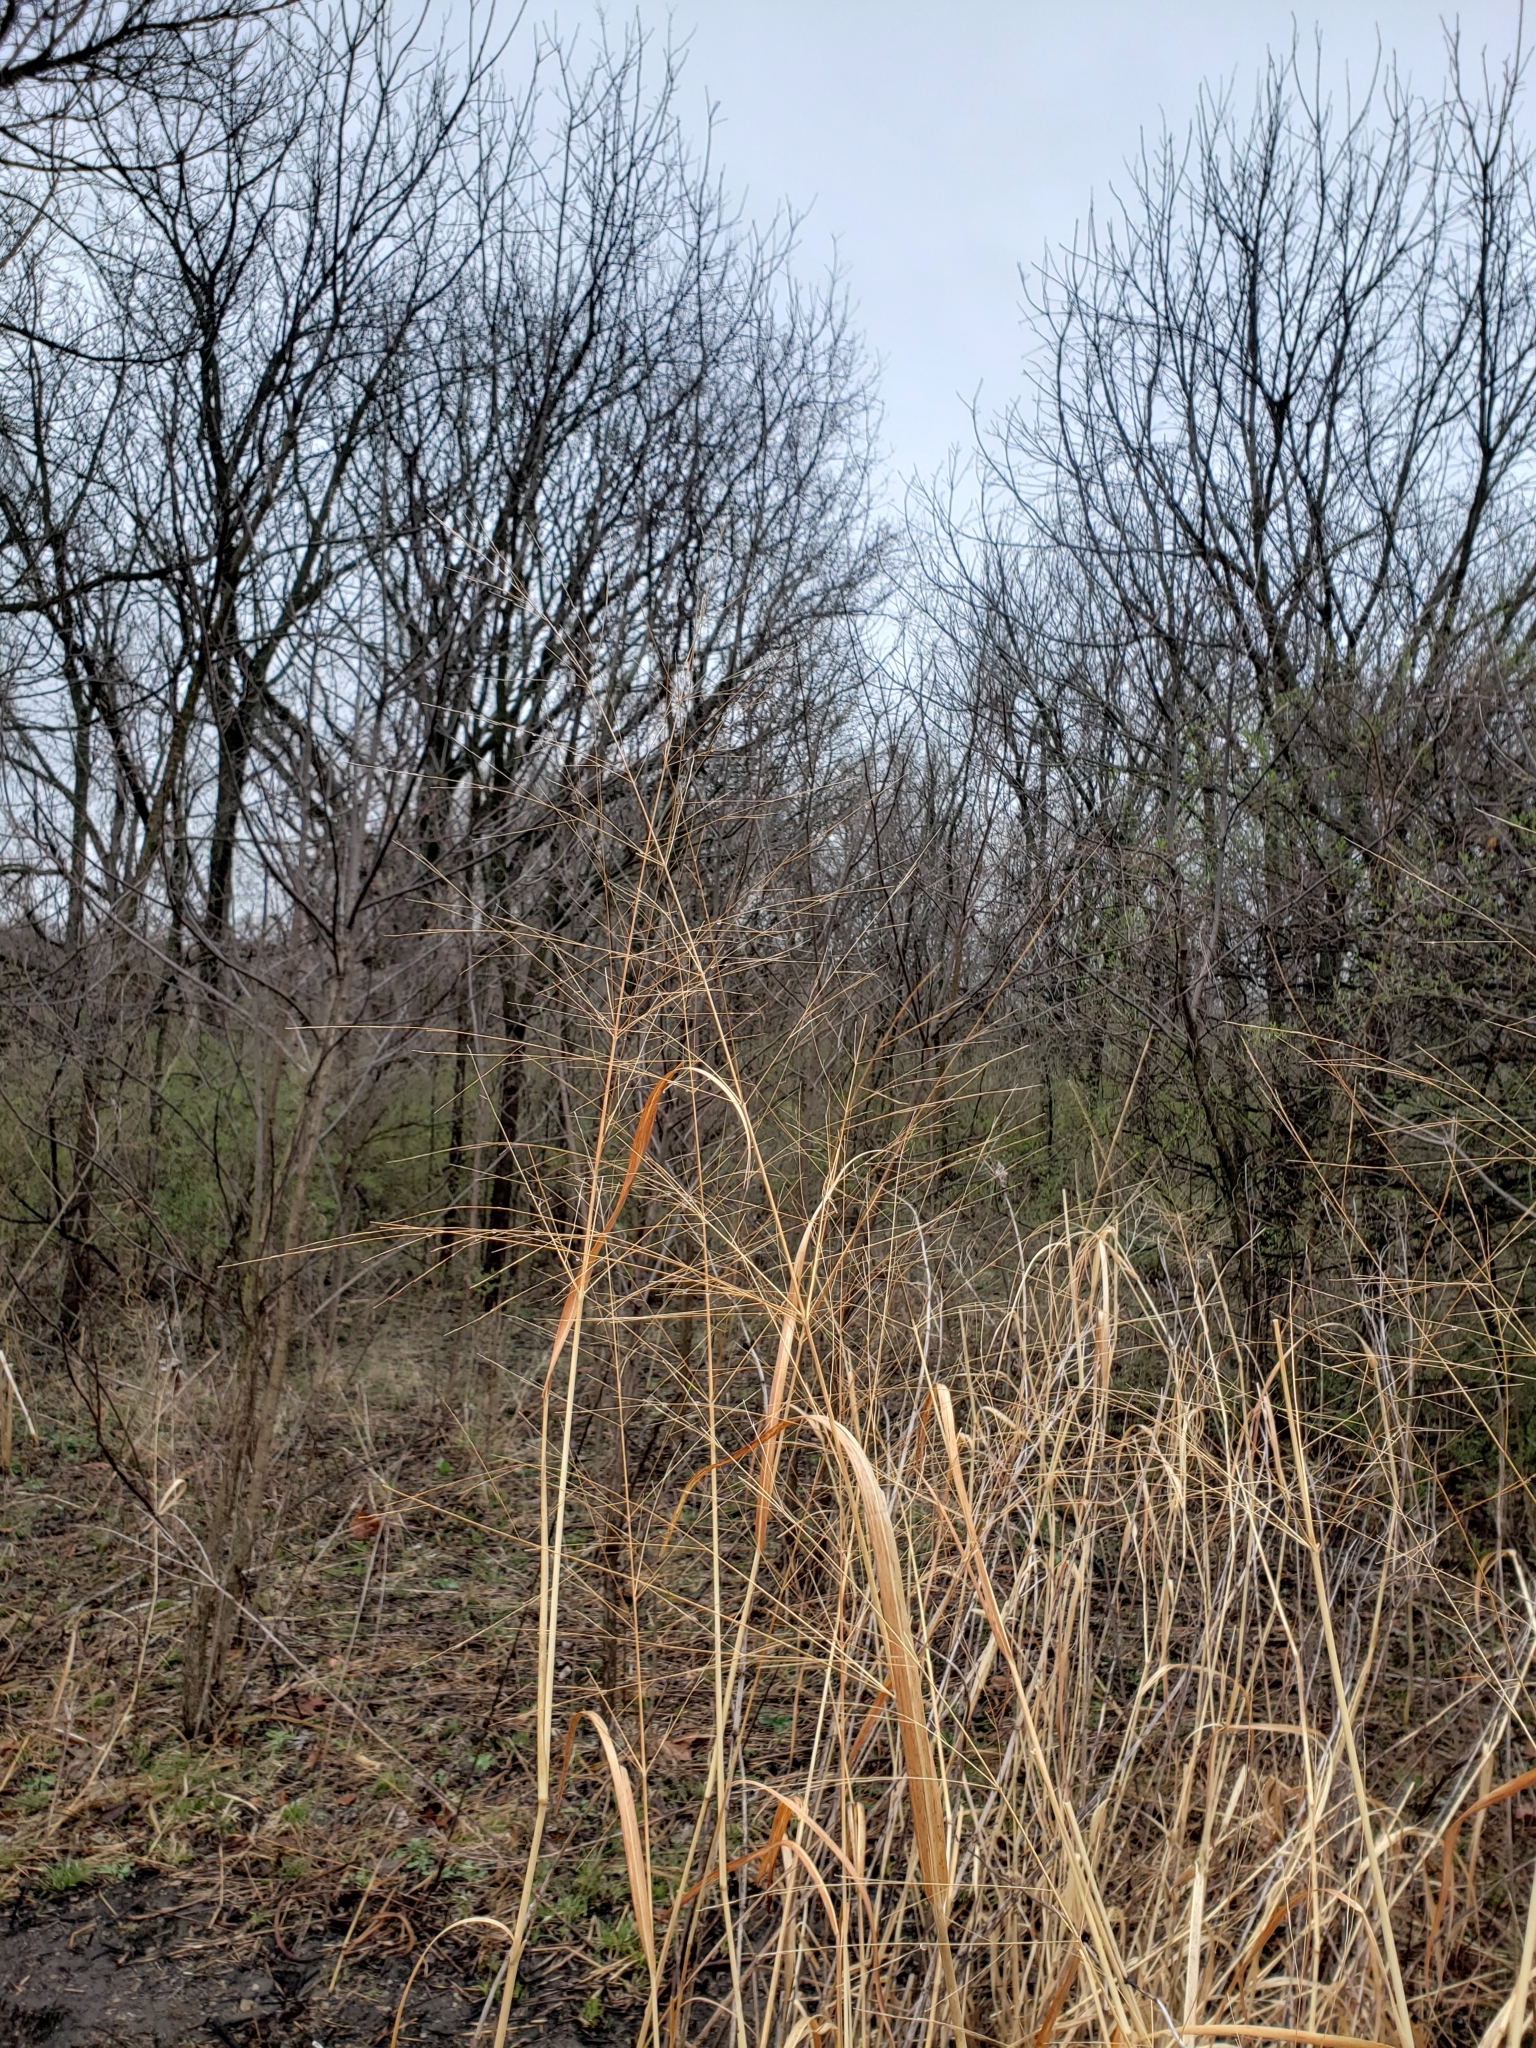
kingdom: Plantae
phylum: Tracheophyta
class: Liliopsida
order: Poales
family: Poaceae
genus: Panicum
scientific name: Panicum virgatum
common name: Switchgrass
